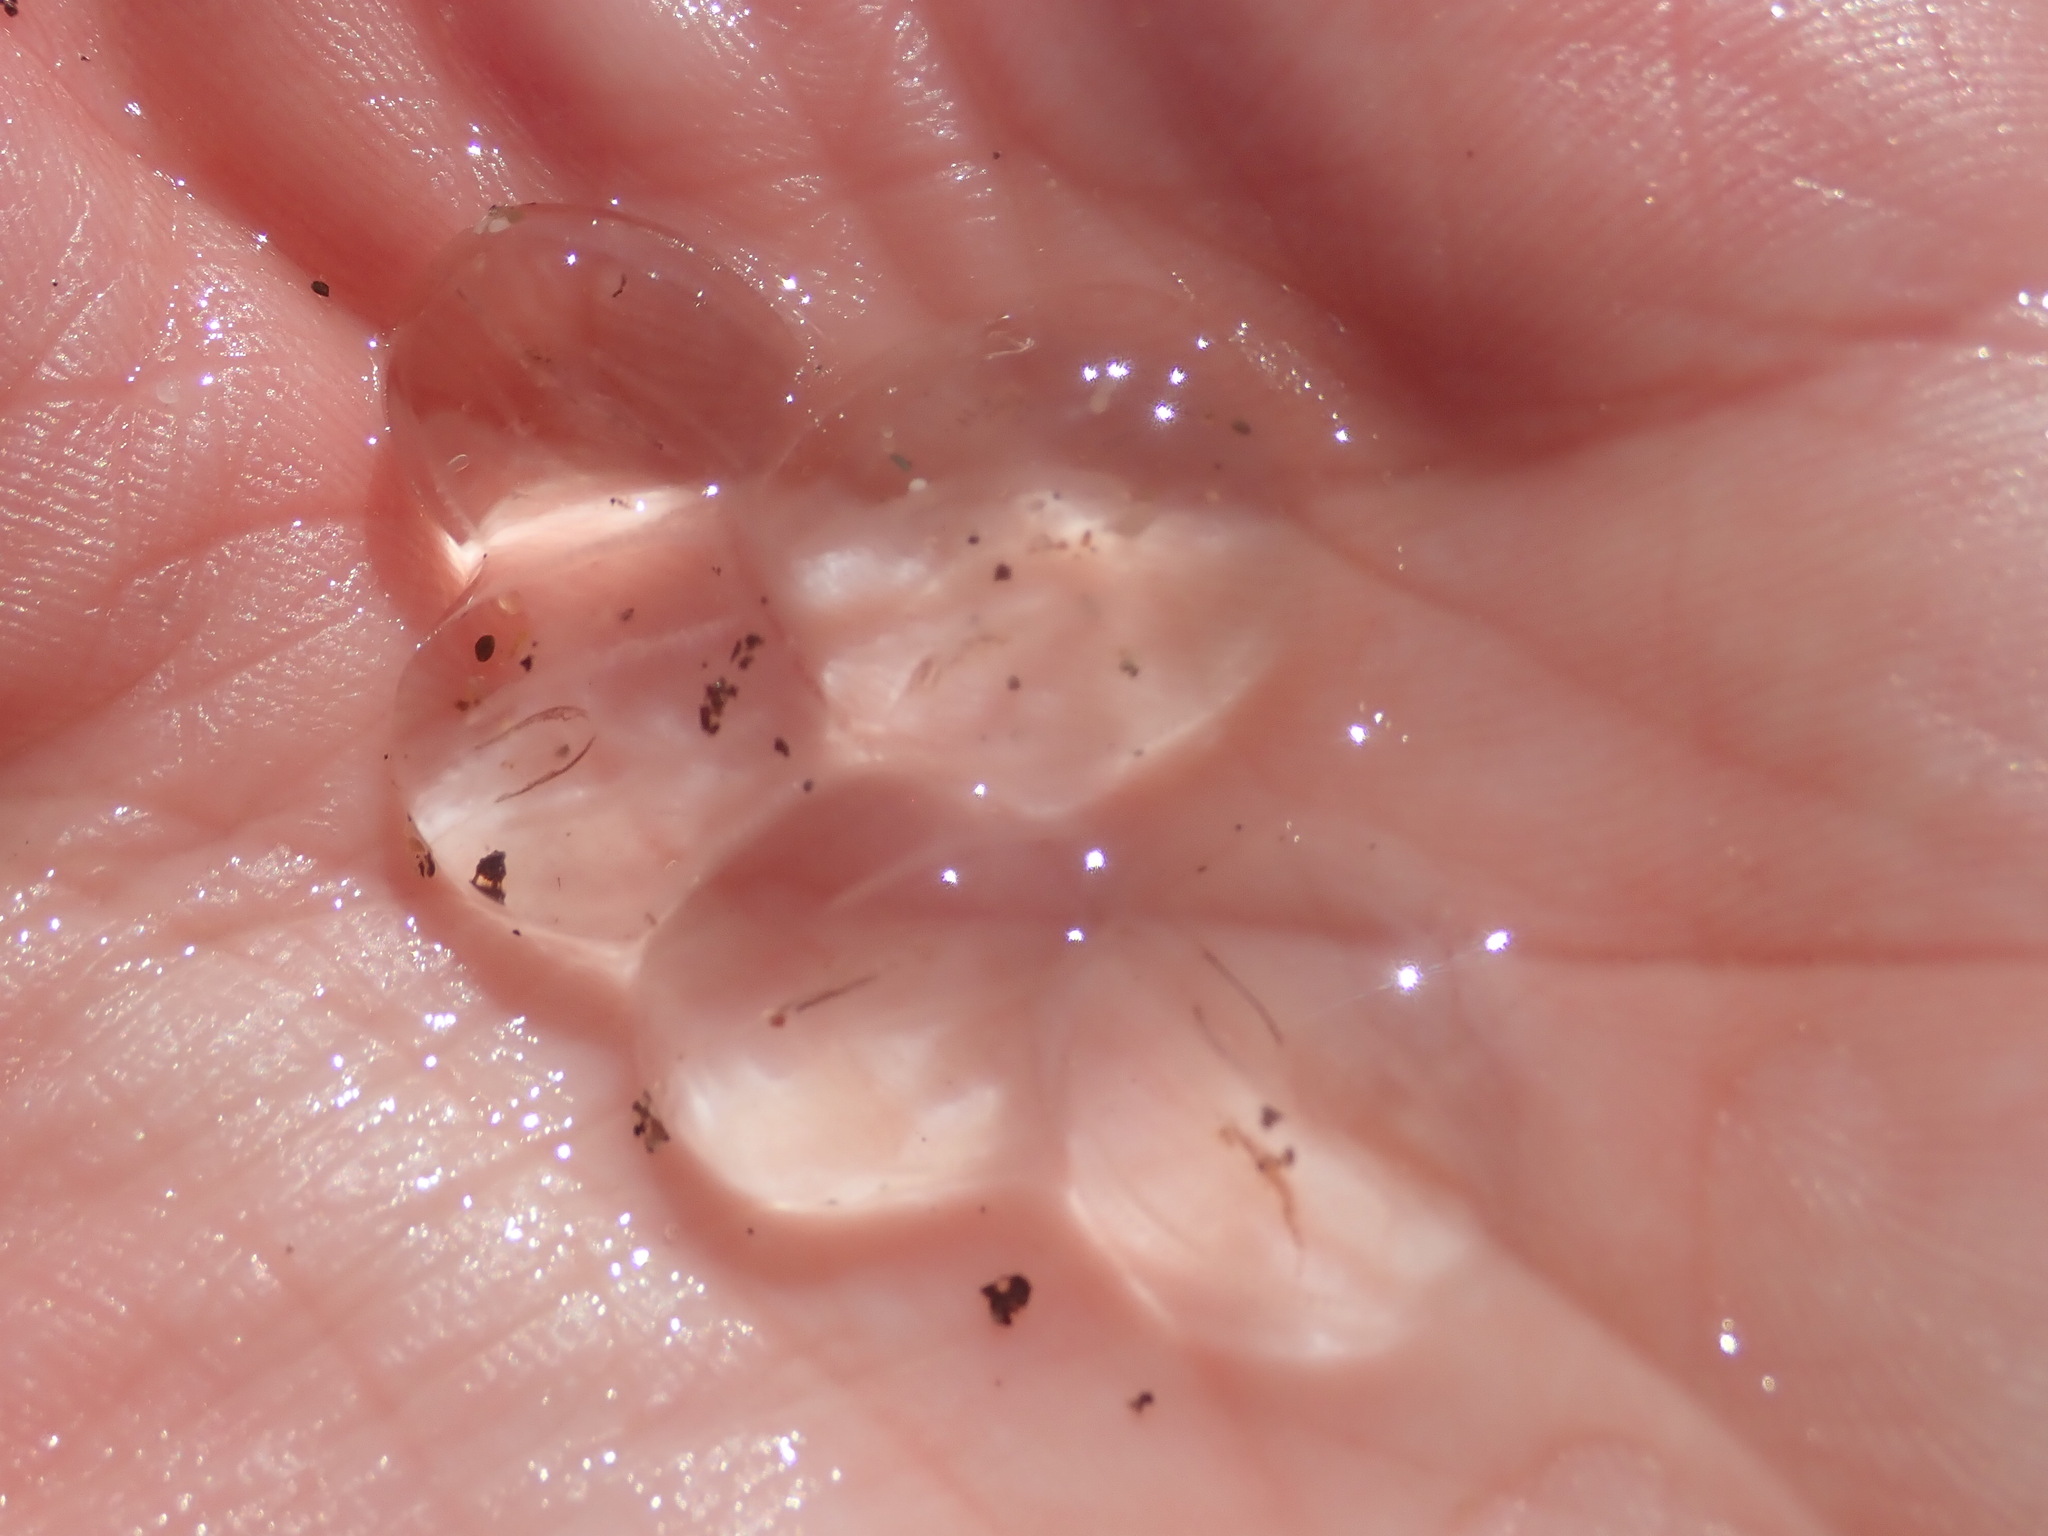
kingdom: Animalia
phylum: Ctenophora
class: Tentaculata
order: Cydippida
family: Pleurobrachiidae
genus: Pleurobrachia
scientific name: Pleurobrachia bachei
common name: Pacific sea gooseberry
